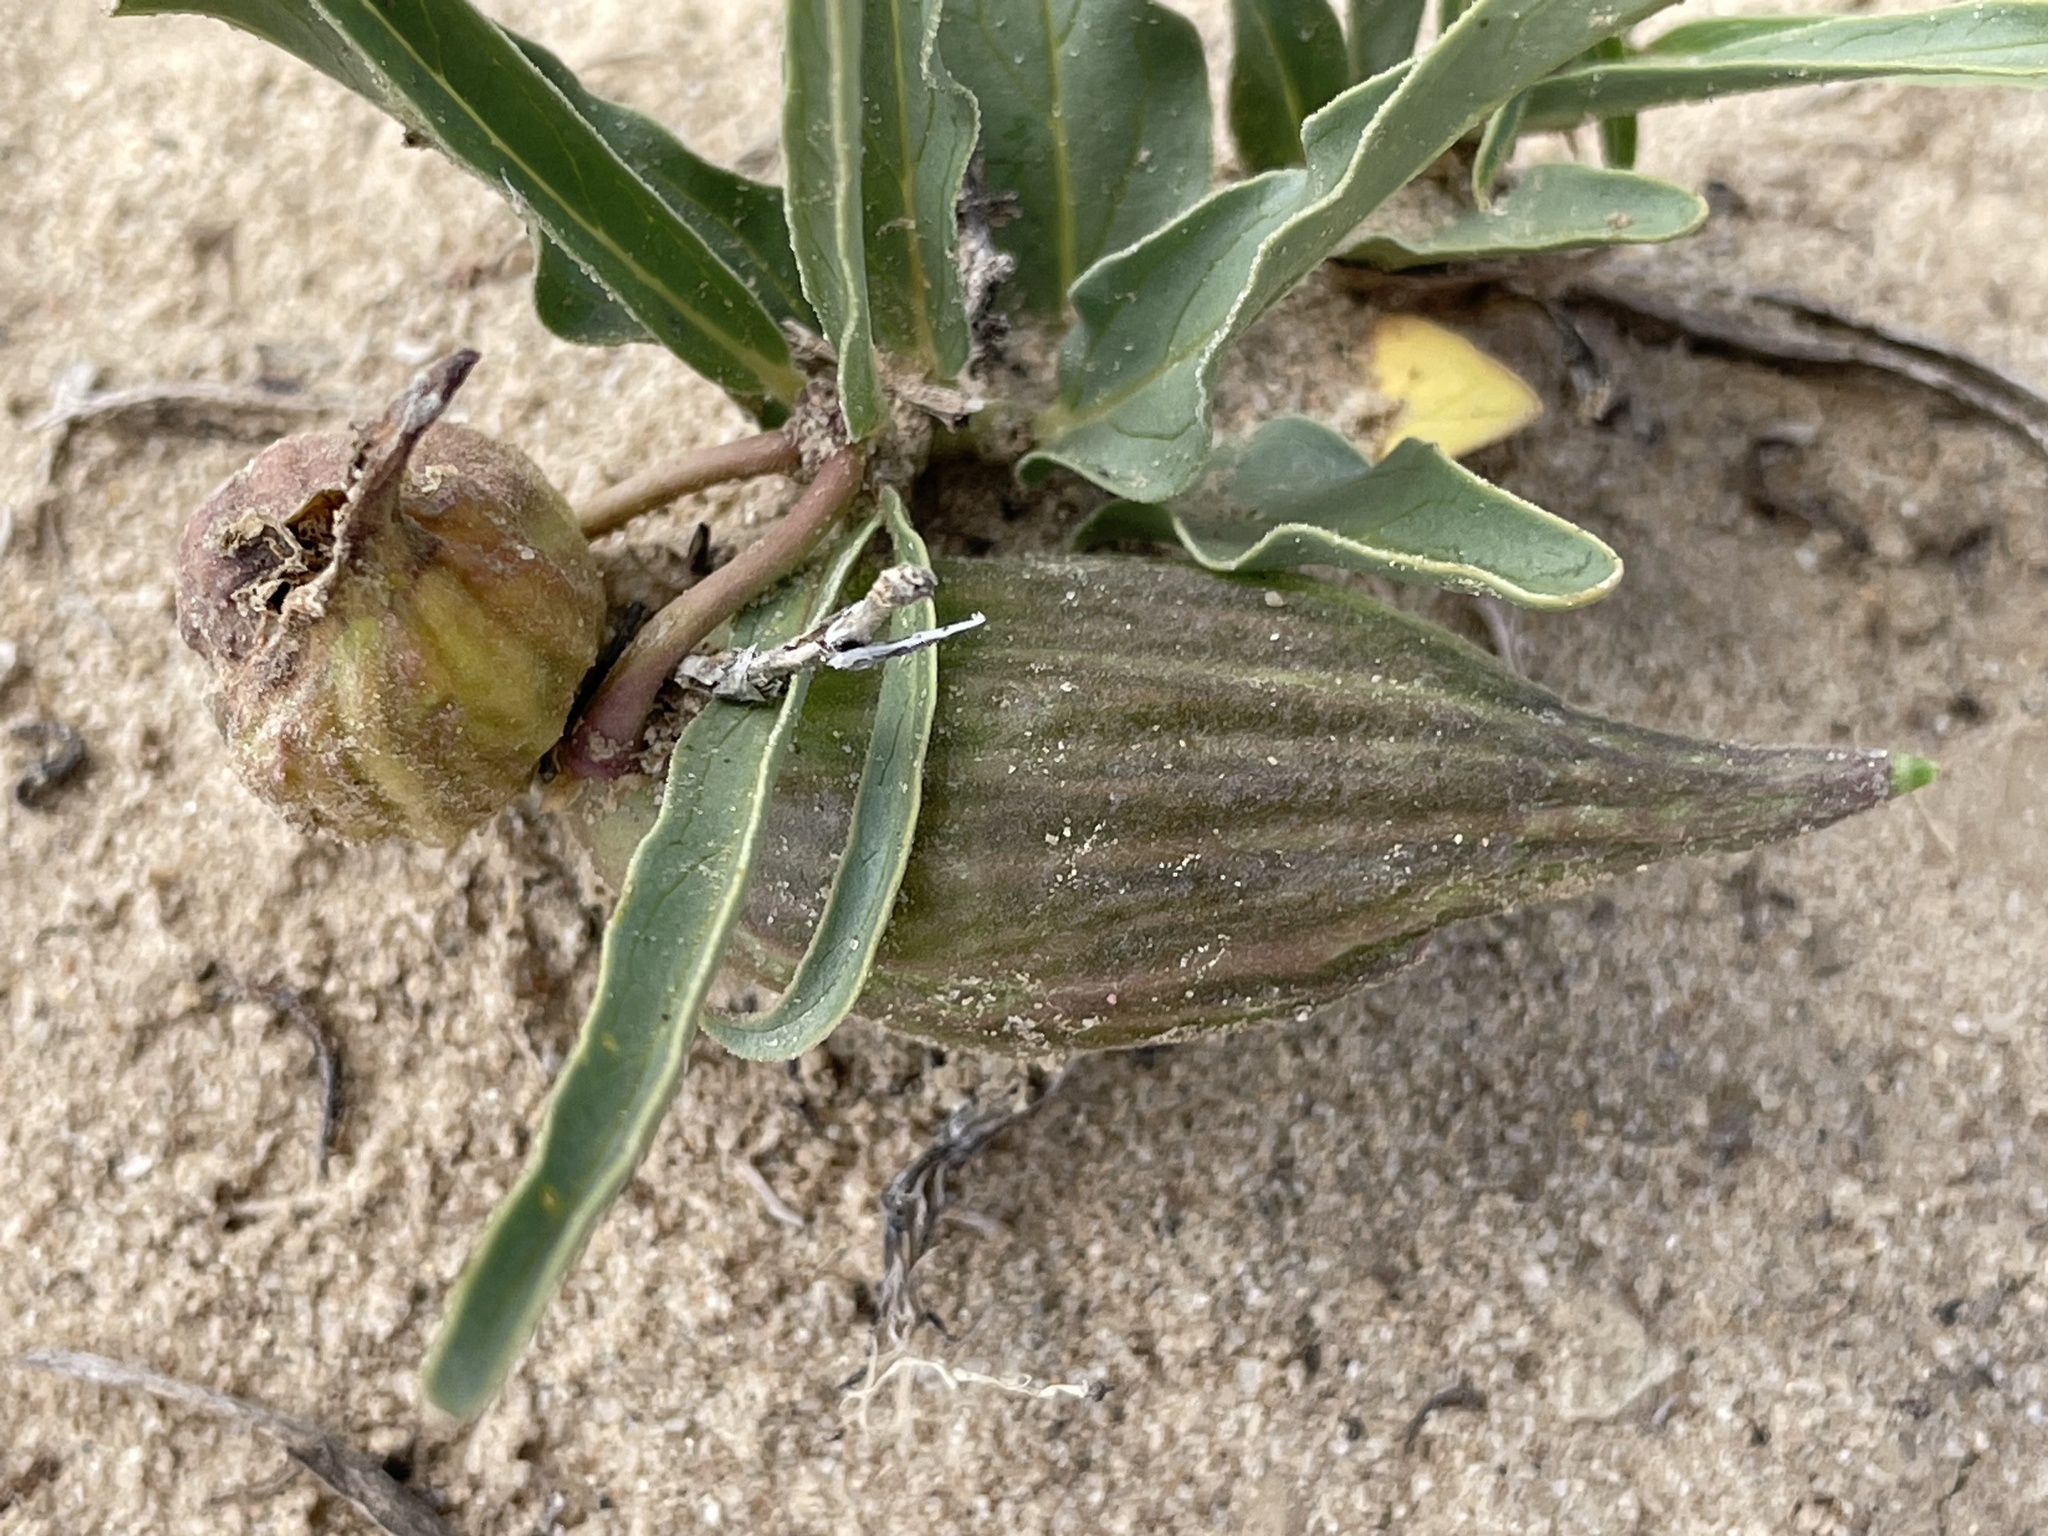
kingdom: Plantae
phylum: Tracheophyta
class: Magnoliopsida
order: Gentianales
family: Apocynaceae
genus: Asclepias
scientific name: Asclepias involucrata
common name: Dwarf milkweed
